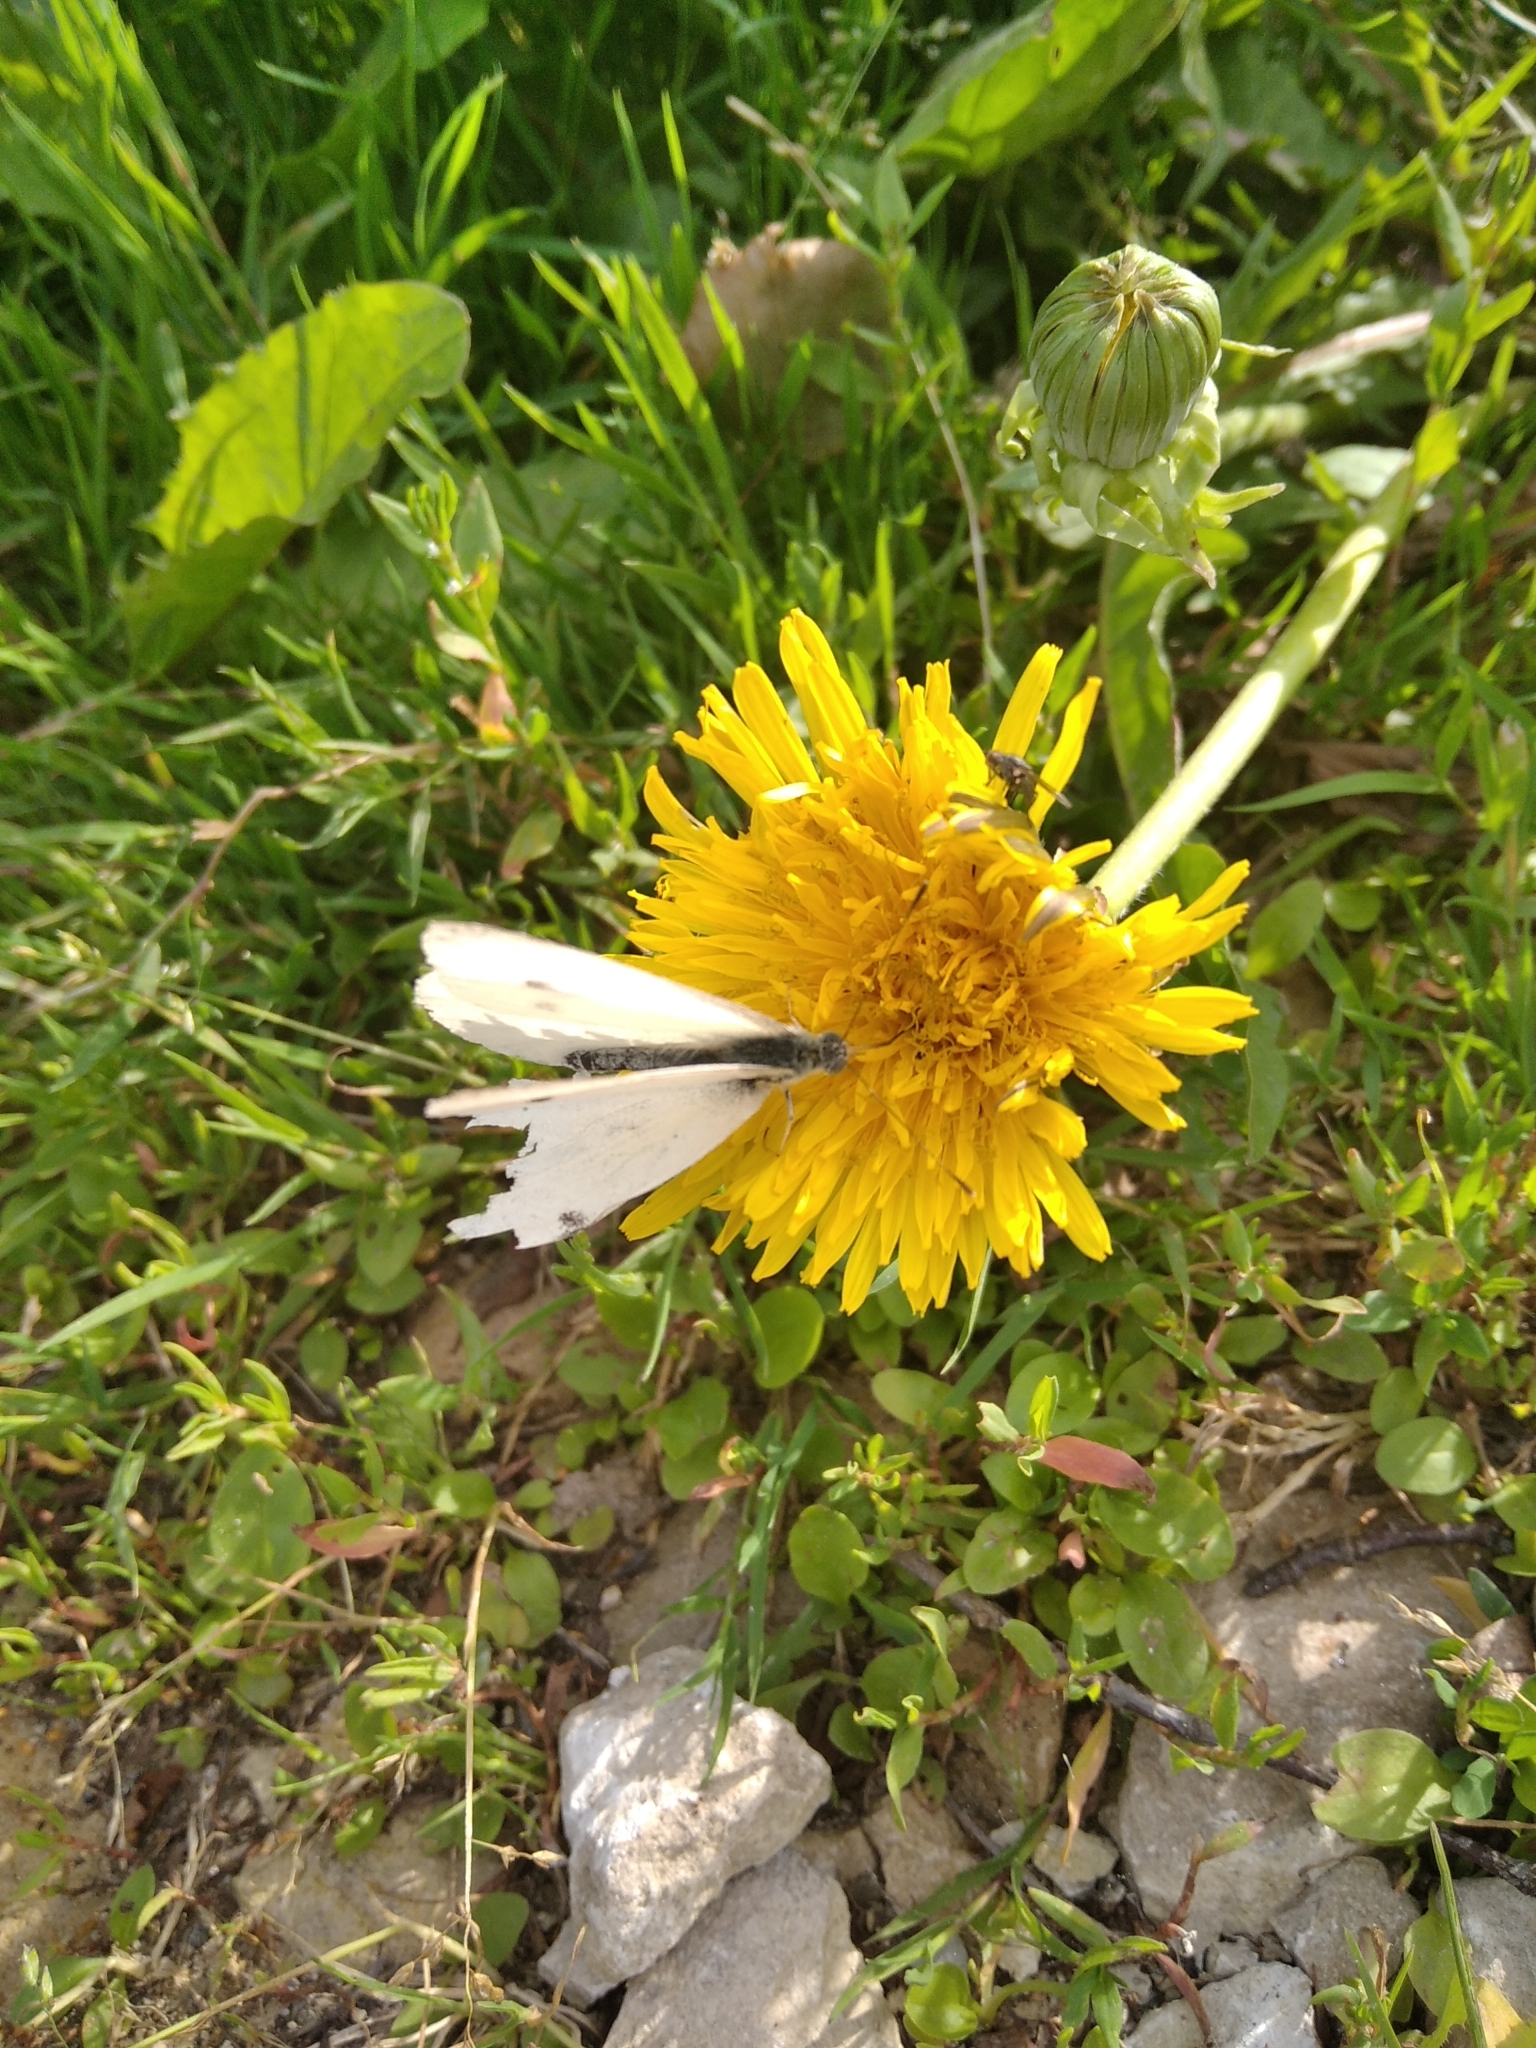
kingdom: Animalia
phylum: Arthropoda
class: Insecta
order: Lepidoptera
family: Pieridae
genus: Pieris
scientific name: Pieris rapae
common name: Small white
